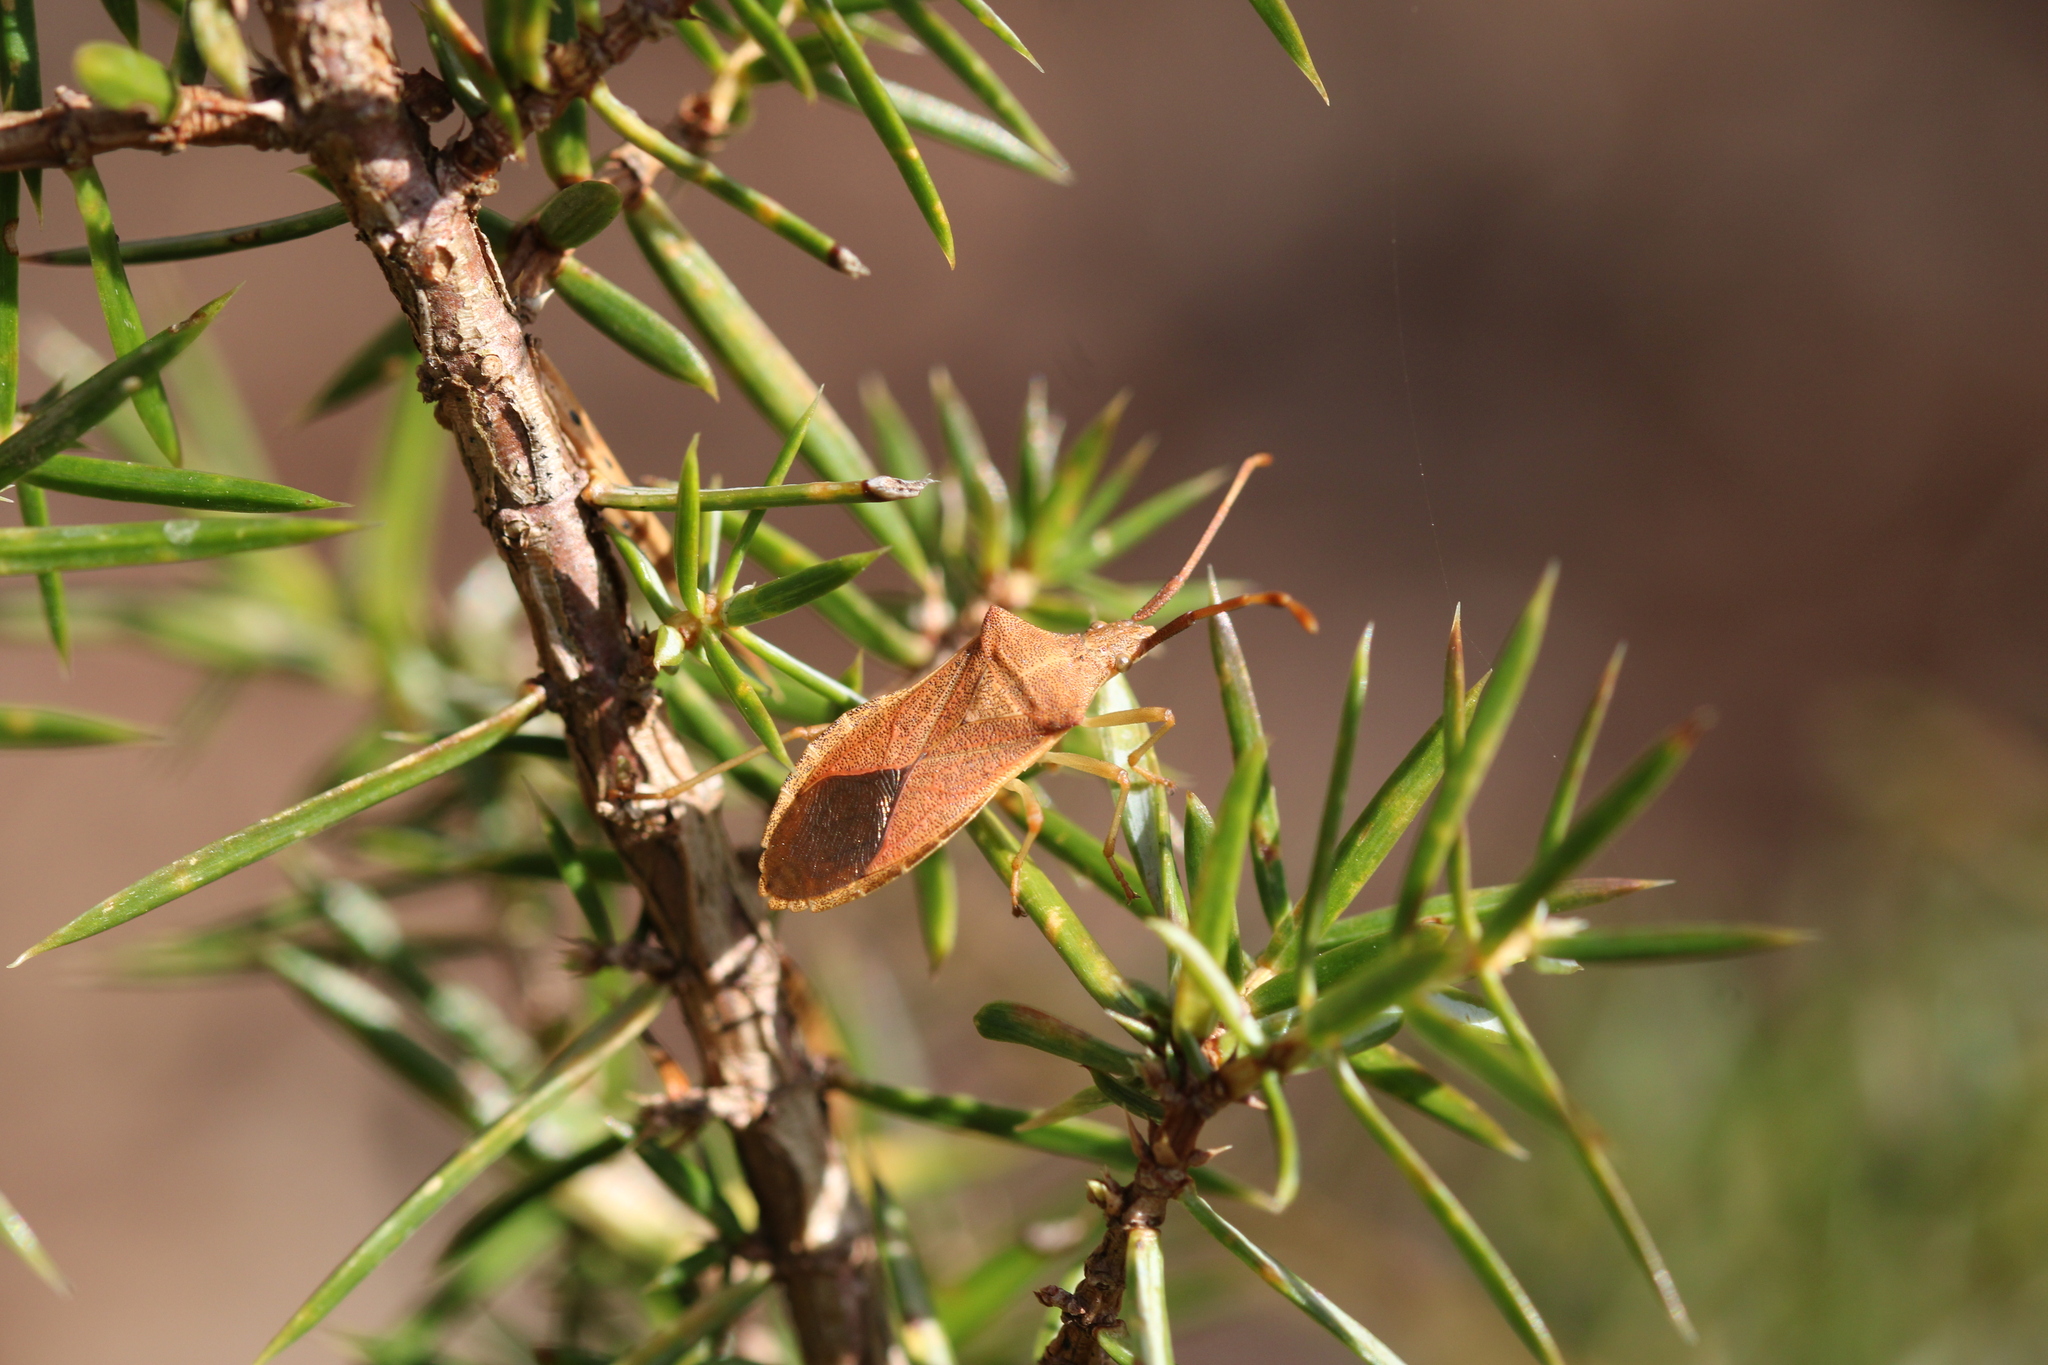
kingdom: Animalia
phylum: Arthropoda
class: Insecta
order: Hemiptera
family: Coreidae
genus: Gonocerus
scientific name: Gonocerus acuteangulatus
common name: Box bug
